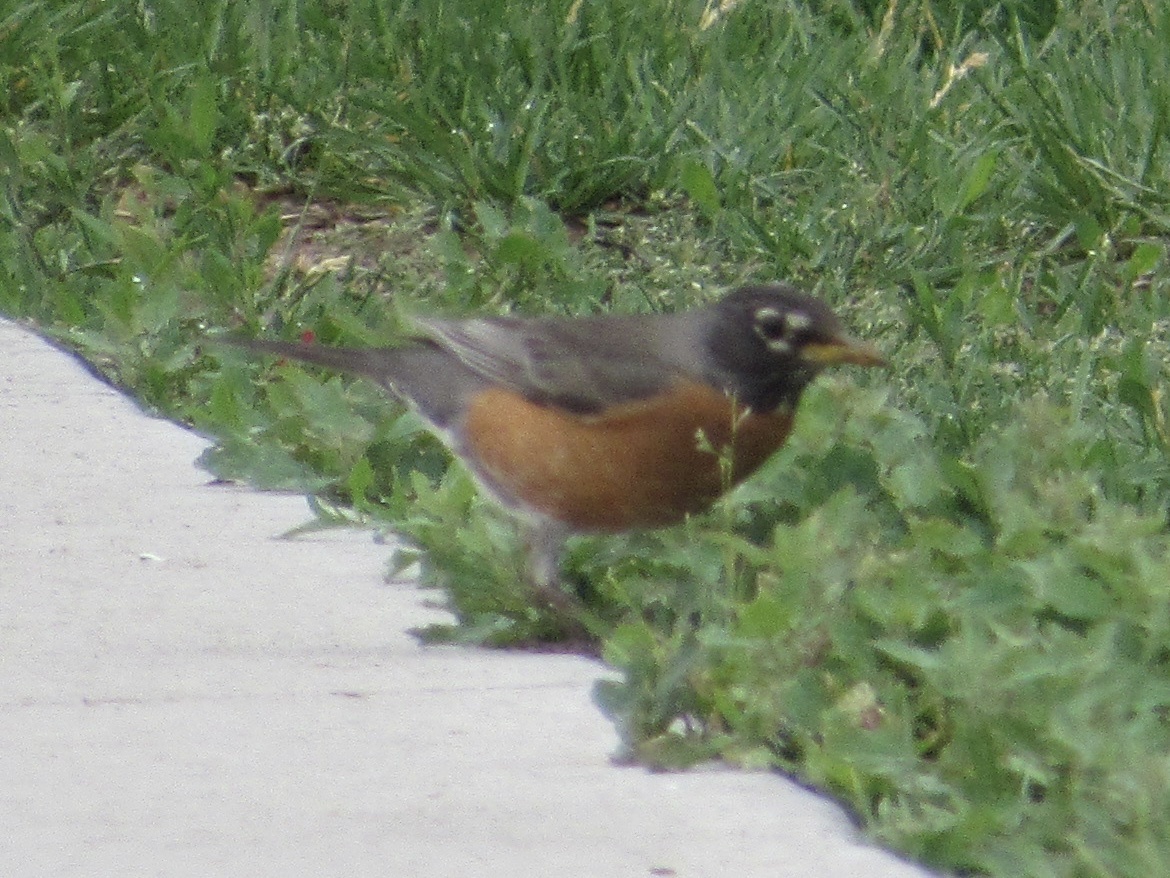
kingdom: Animalia
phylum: Chordata
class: Aves
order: Passeriformes
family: Turdidae
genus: Turdus
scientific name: Turdus migratorius
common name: American robin
